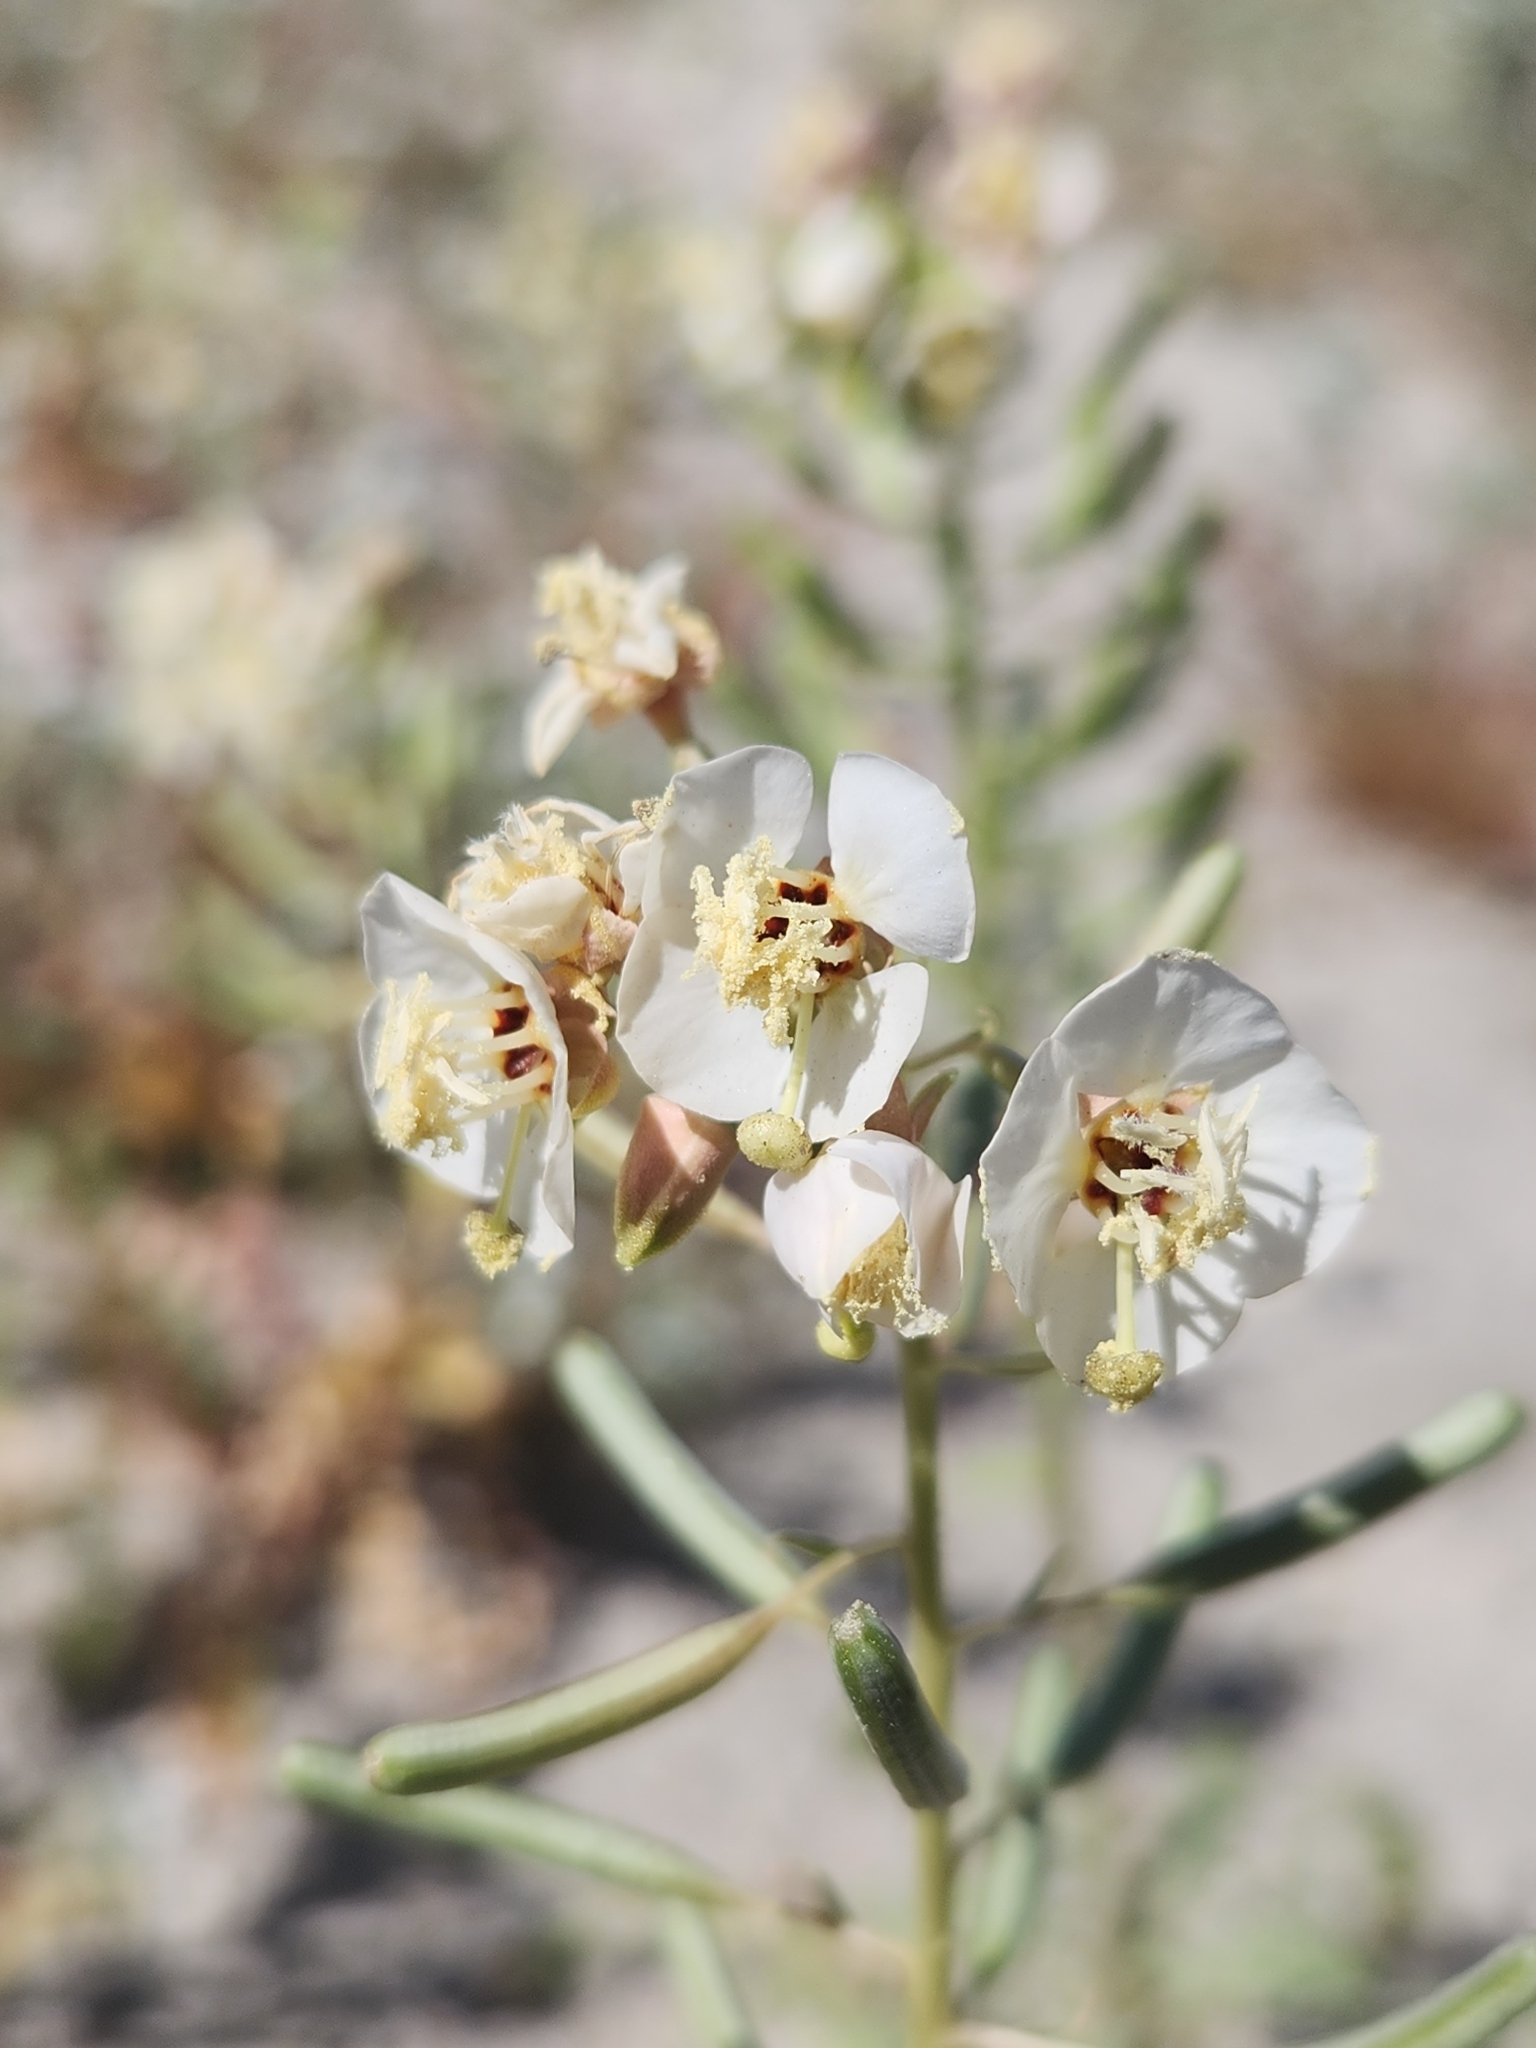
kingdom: Plantae
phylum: Tracheophyta
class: Magnoliopsida
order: Myrtales
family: Onagraceae
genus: Chylismia
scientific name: Chylismia claviformis
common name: Browneyes
